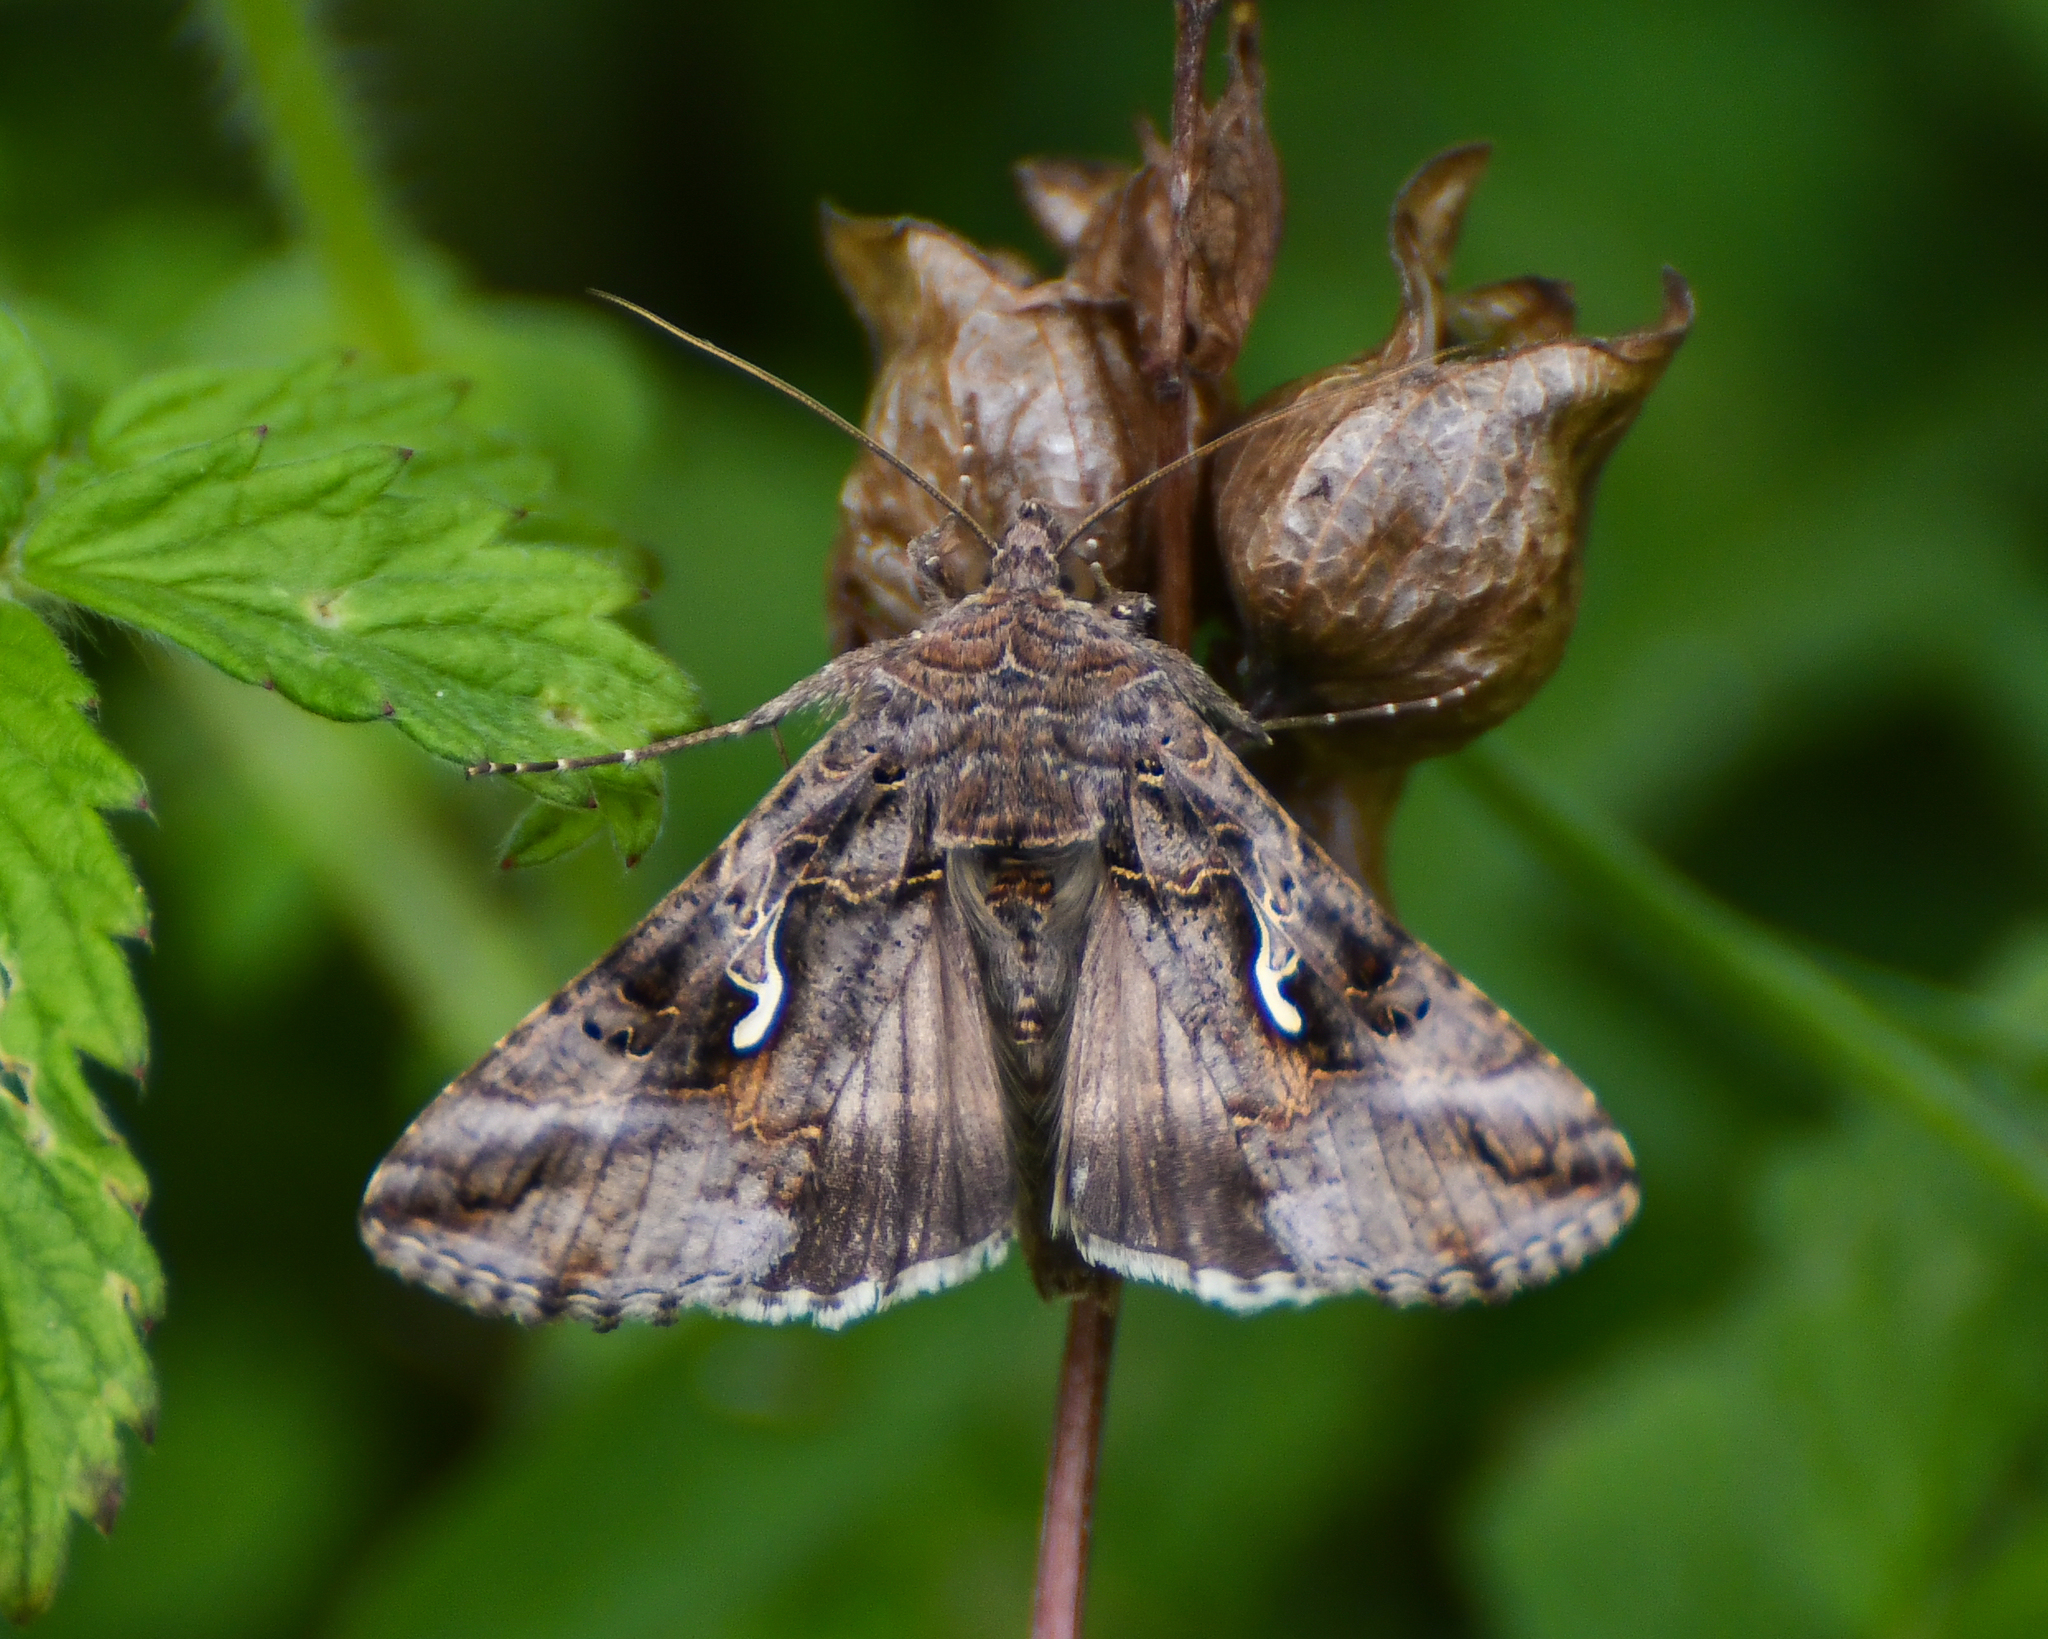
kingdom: Animalia
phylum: Arthropoda
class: Insecta
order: Lepidoptera
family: Noctuidae
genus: Autographa
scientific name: Autographa gamma
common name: Silver y
